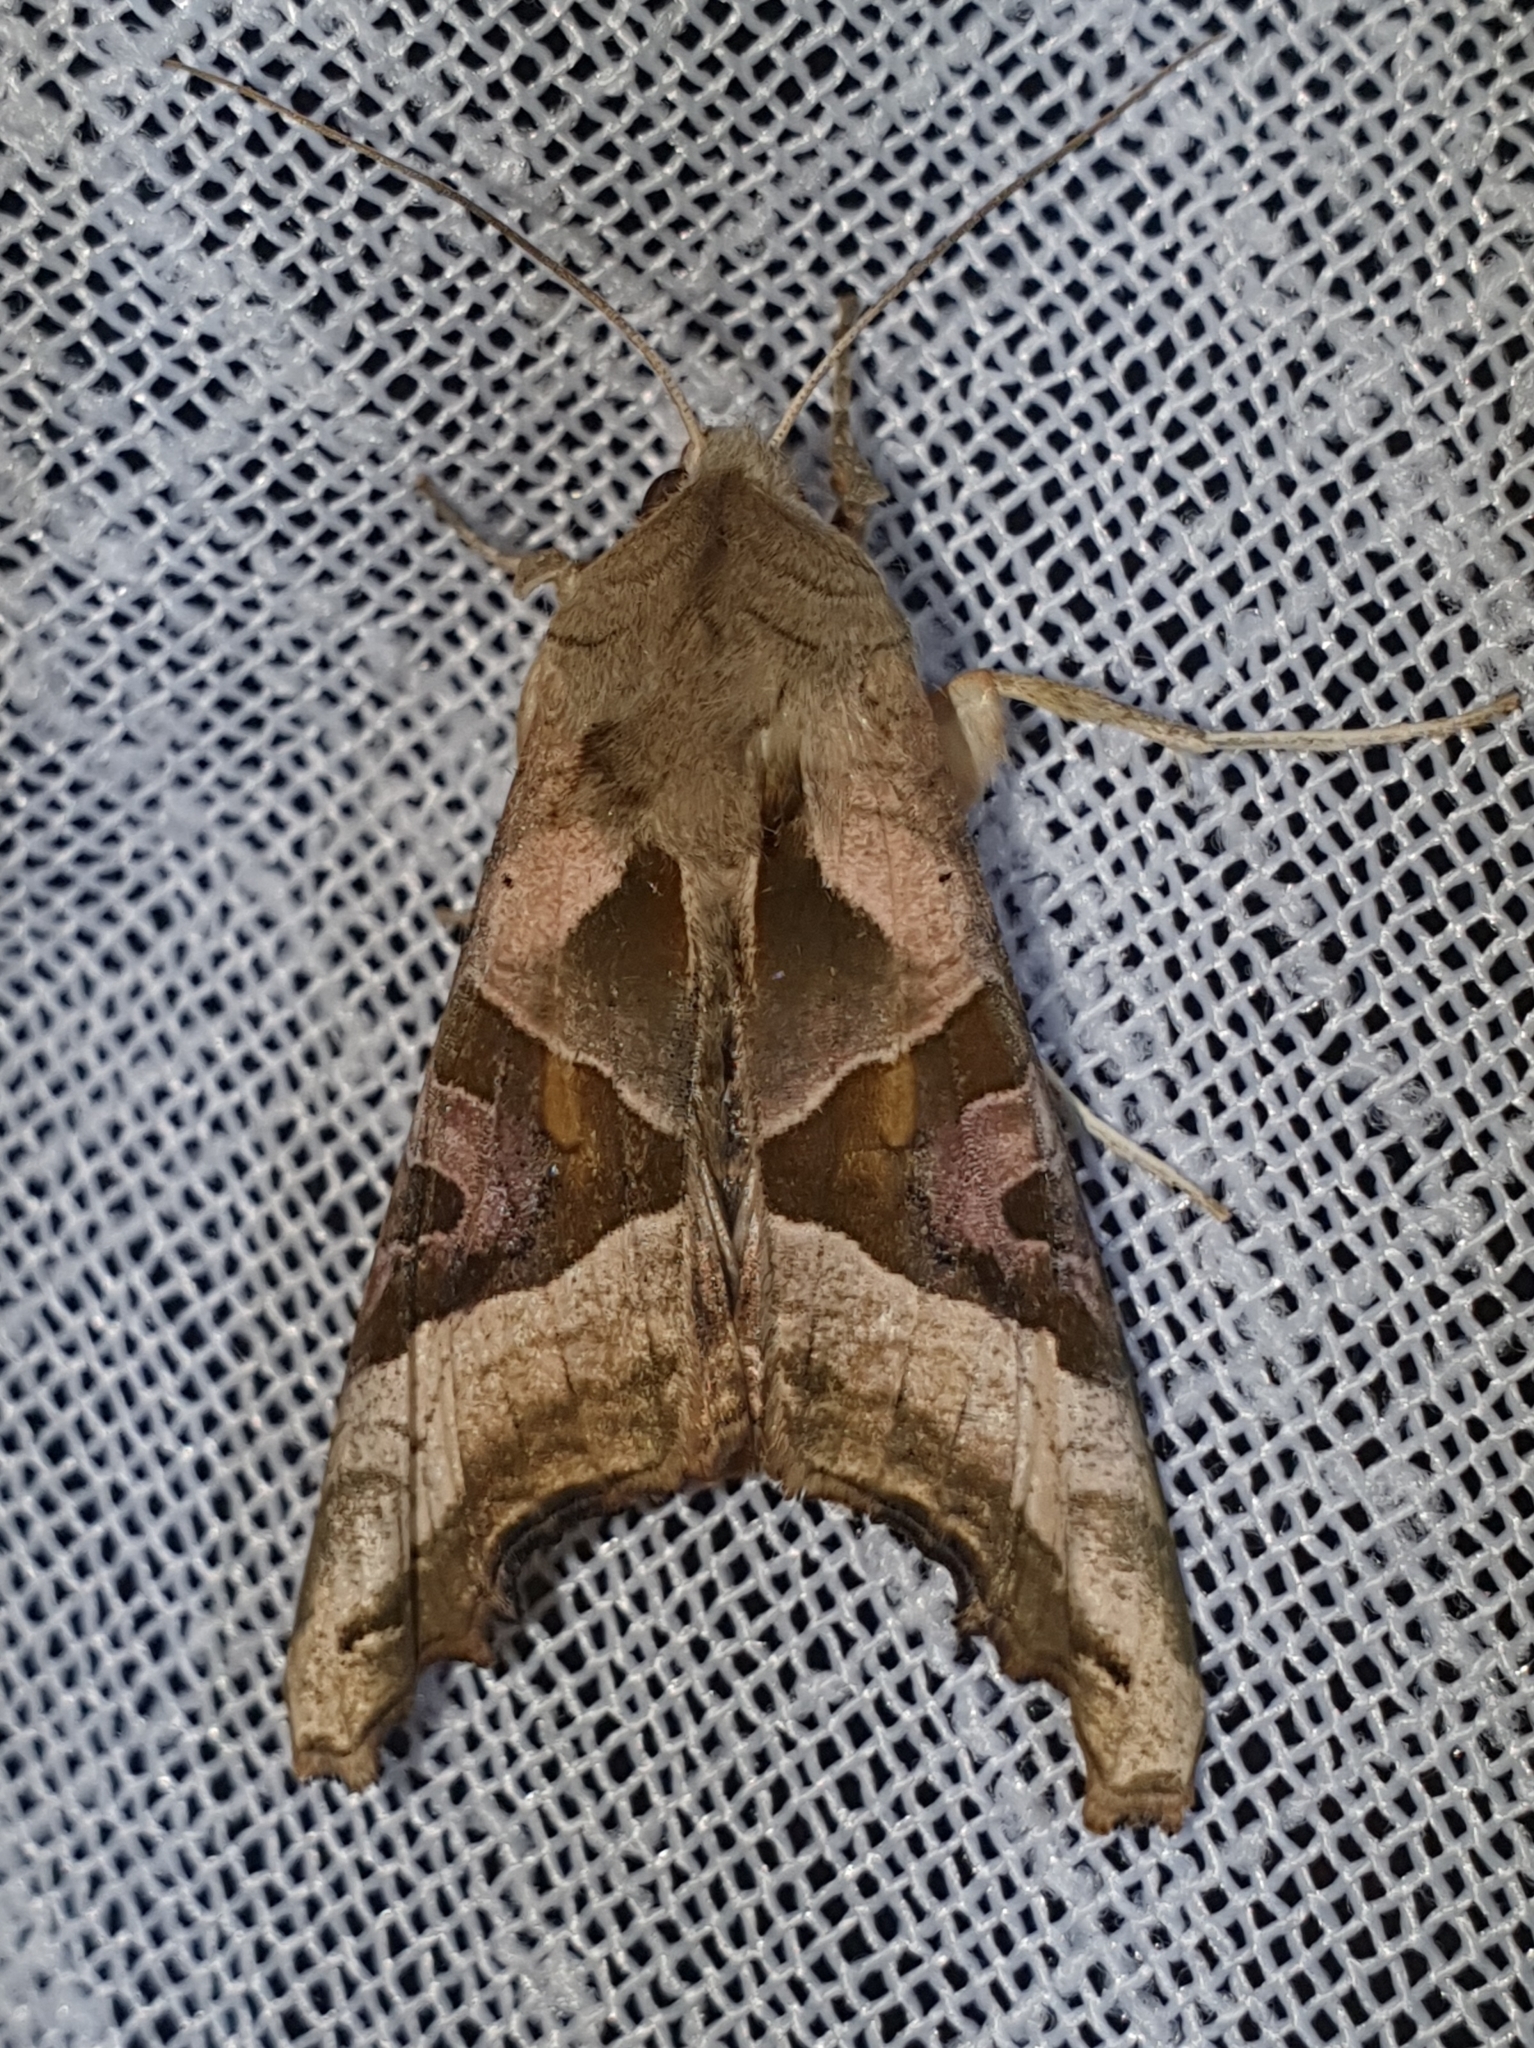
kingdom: Animalia
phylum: Arthropoda
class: Insecta
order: Lepidoptera
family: Noctuidae
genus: Phlogophora
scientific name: Phlogophora meticulosa
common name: Angle shades
